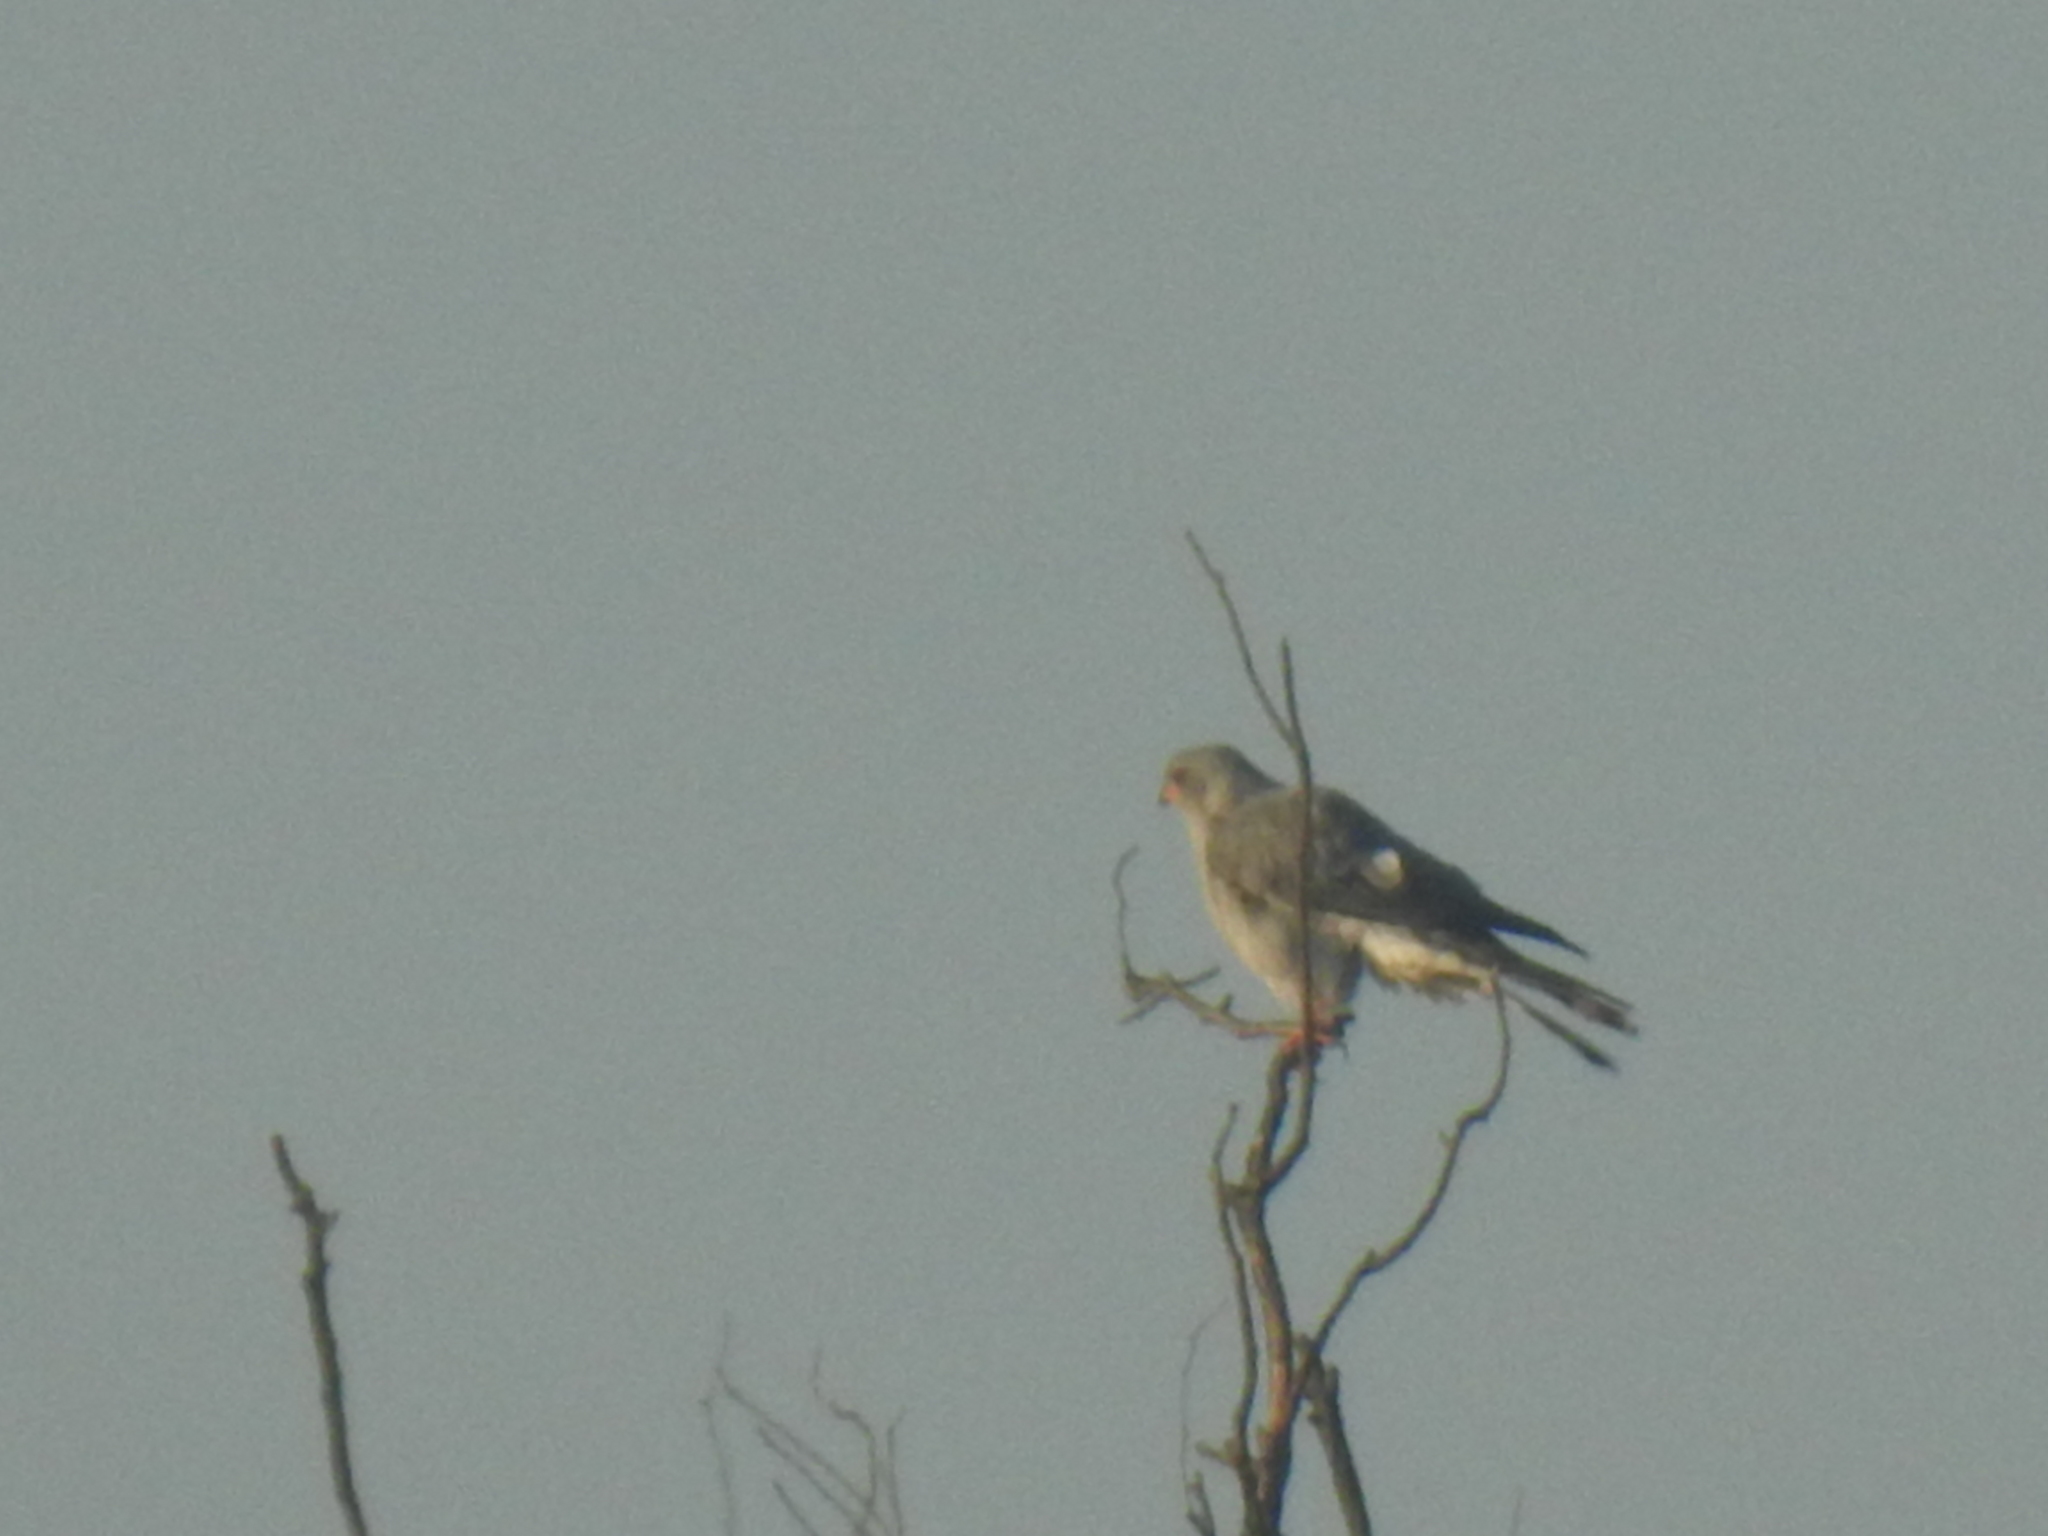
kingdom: Animalia
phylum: Chordata
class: Aves
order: Accipitriformes
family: Accipitridae
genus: Accipiter
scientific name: Accipiter ovampensis
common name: Ovambo sparrowhawk
